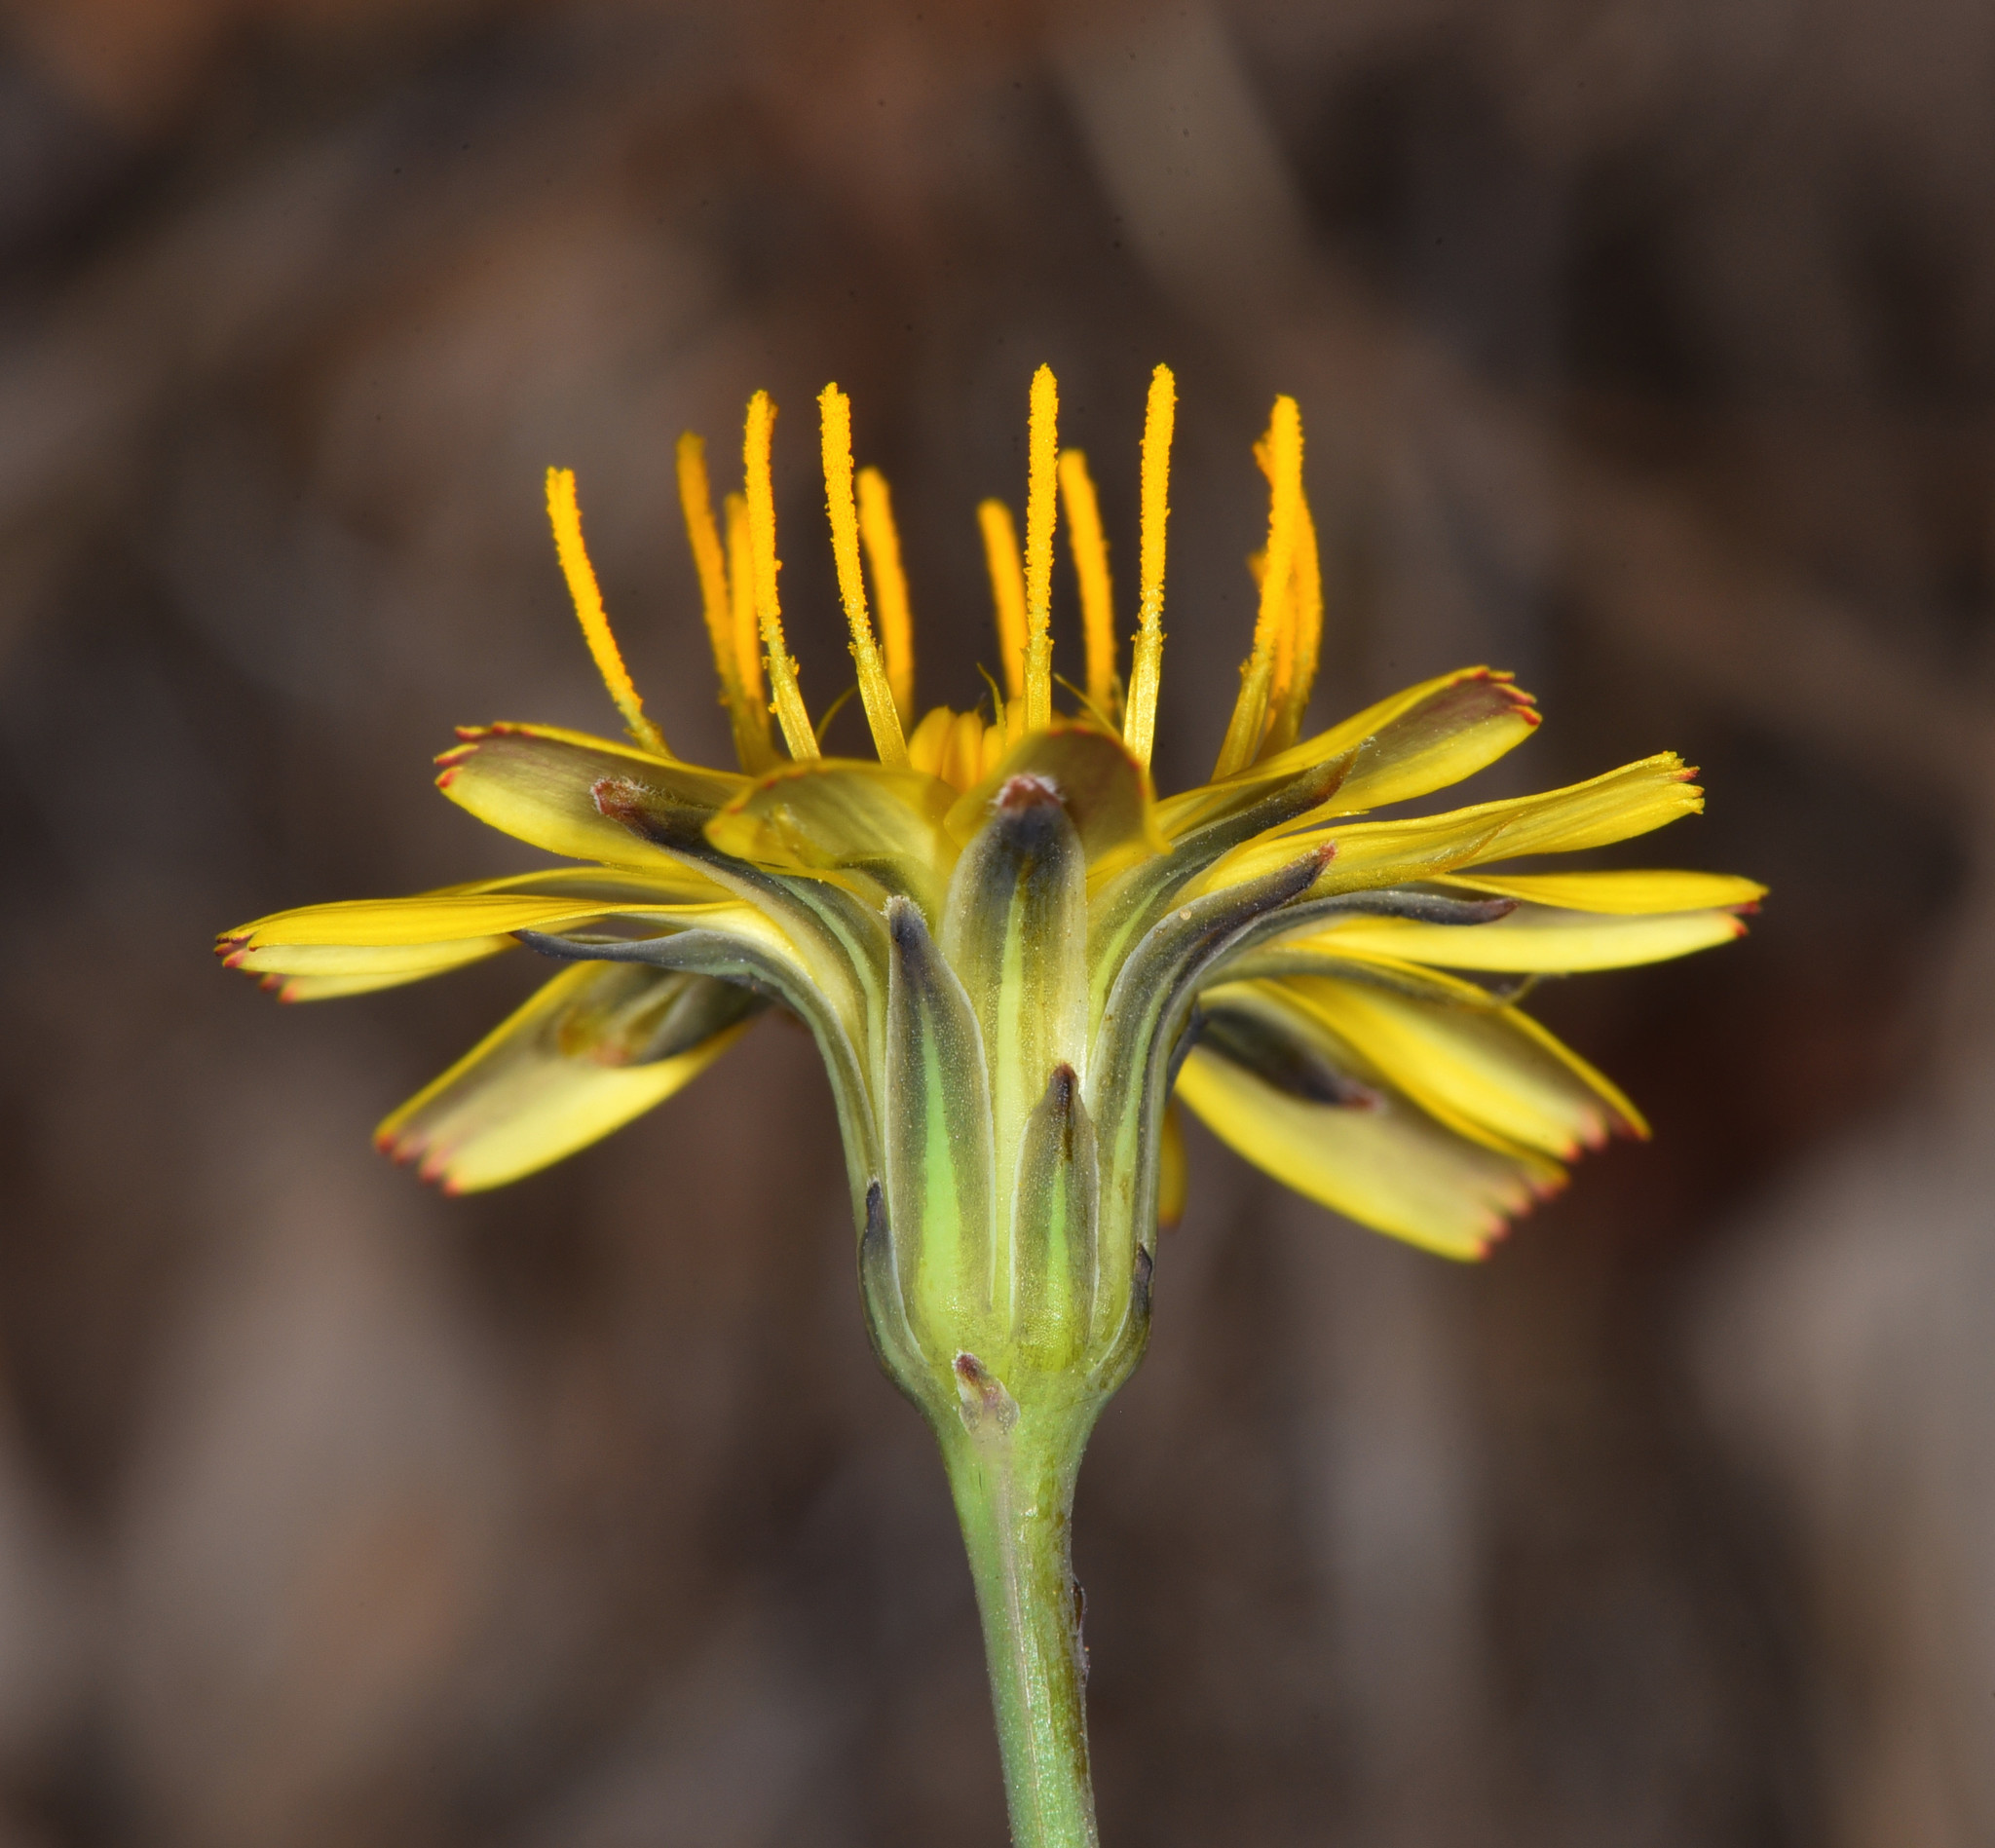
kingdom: Plantae
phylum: Tracheophyta
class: Magnoliopsida
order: Asterales
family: Asteraceae
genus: Hypochaeris
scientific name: Hypochaeris radicata
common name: Flatweed
